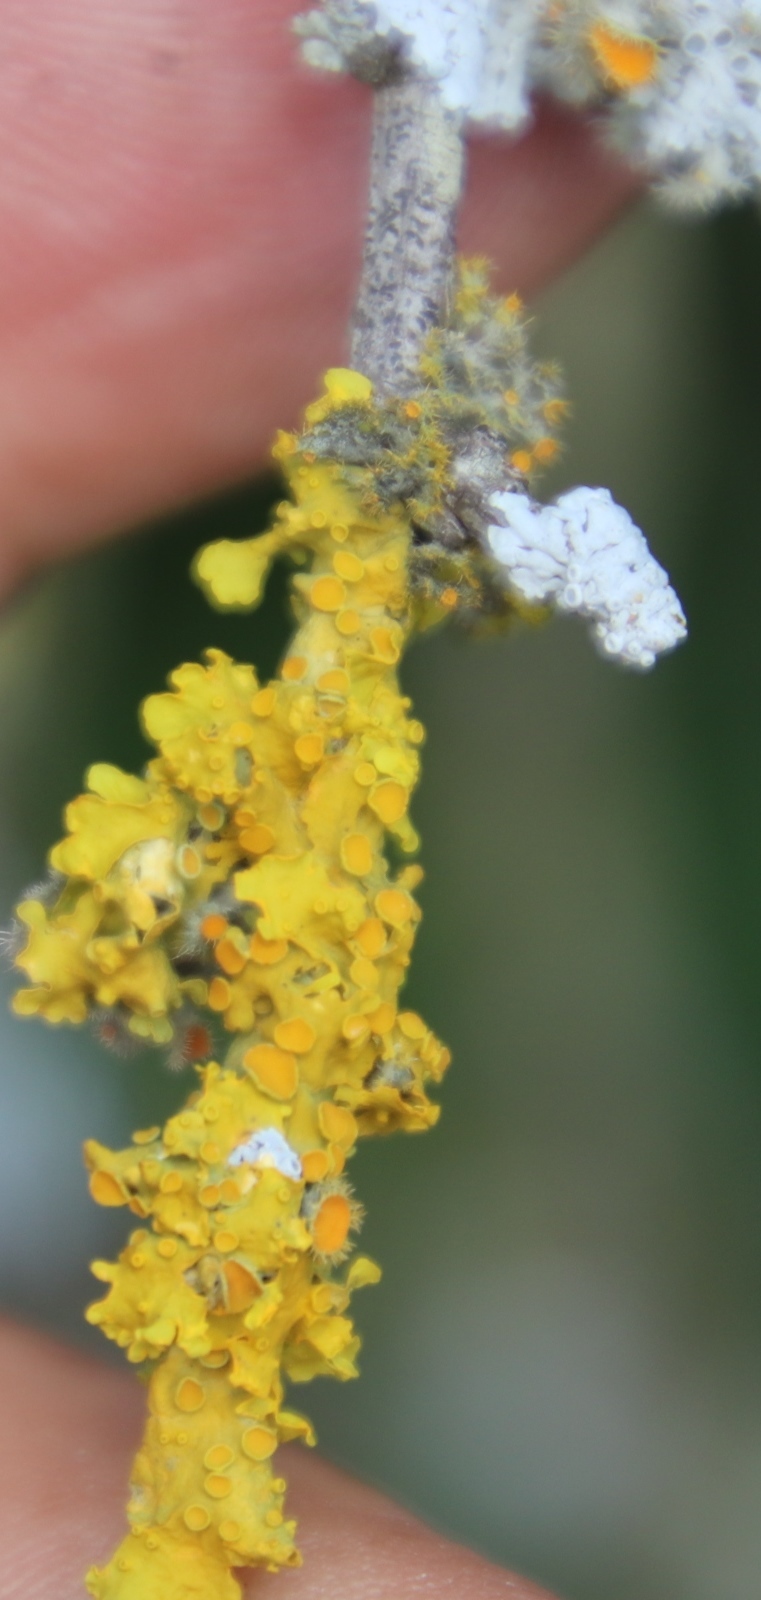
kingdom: Fungi
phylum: Ascomycota
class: Lecanoromycetes
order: Teloschistales
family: Teloschistaceae
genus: Xanthoria
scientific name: Xanthoria parietina
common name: Common orange lichen
